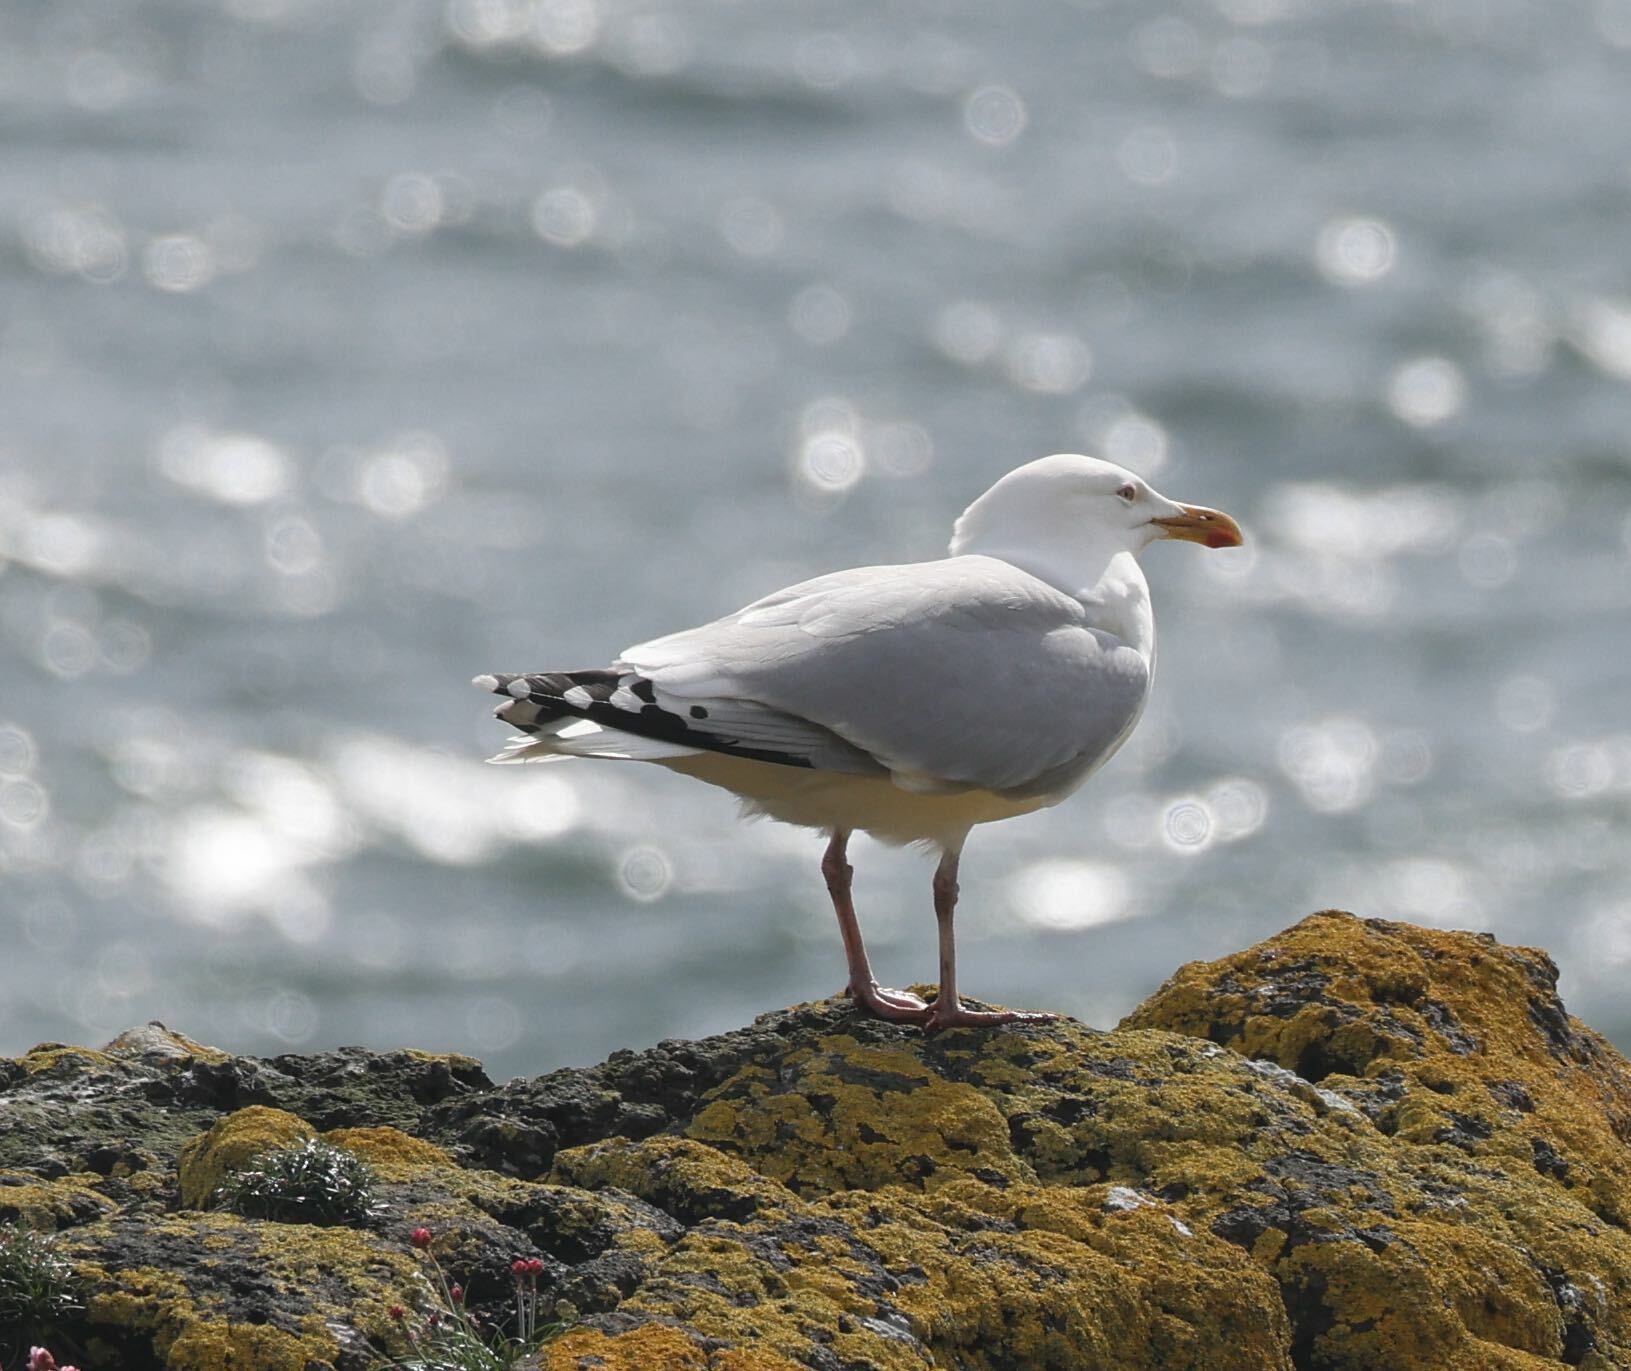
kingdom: Animalia
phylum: Chordata
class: Aves
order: Charadriiformes
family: Laridae
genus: Larus
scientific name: Larus argentatus
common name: Herring gull
